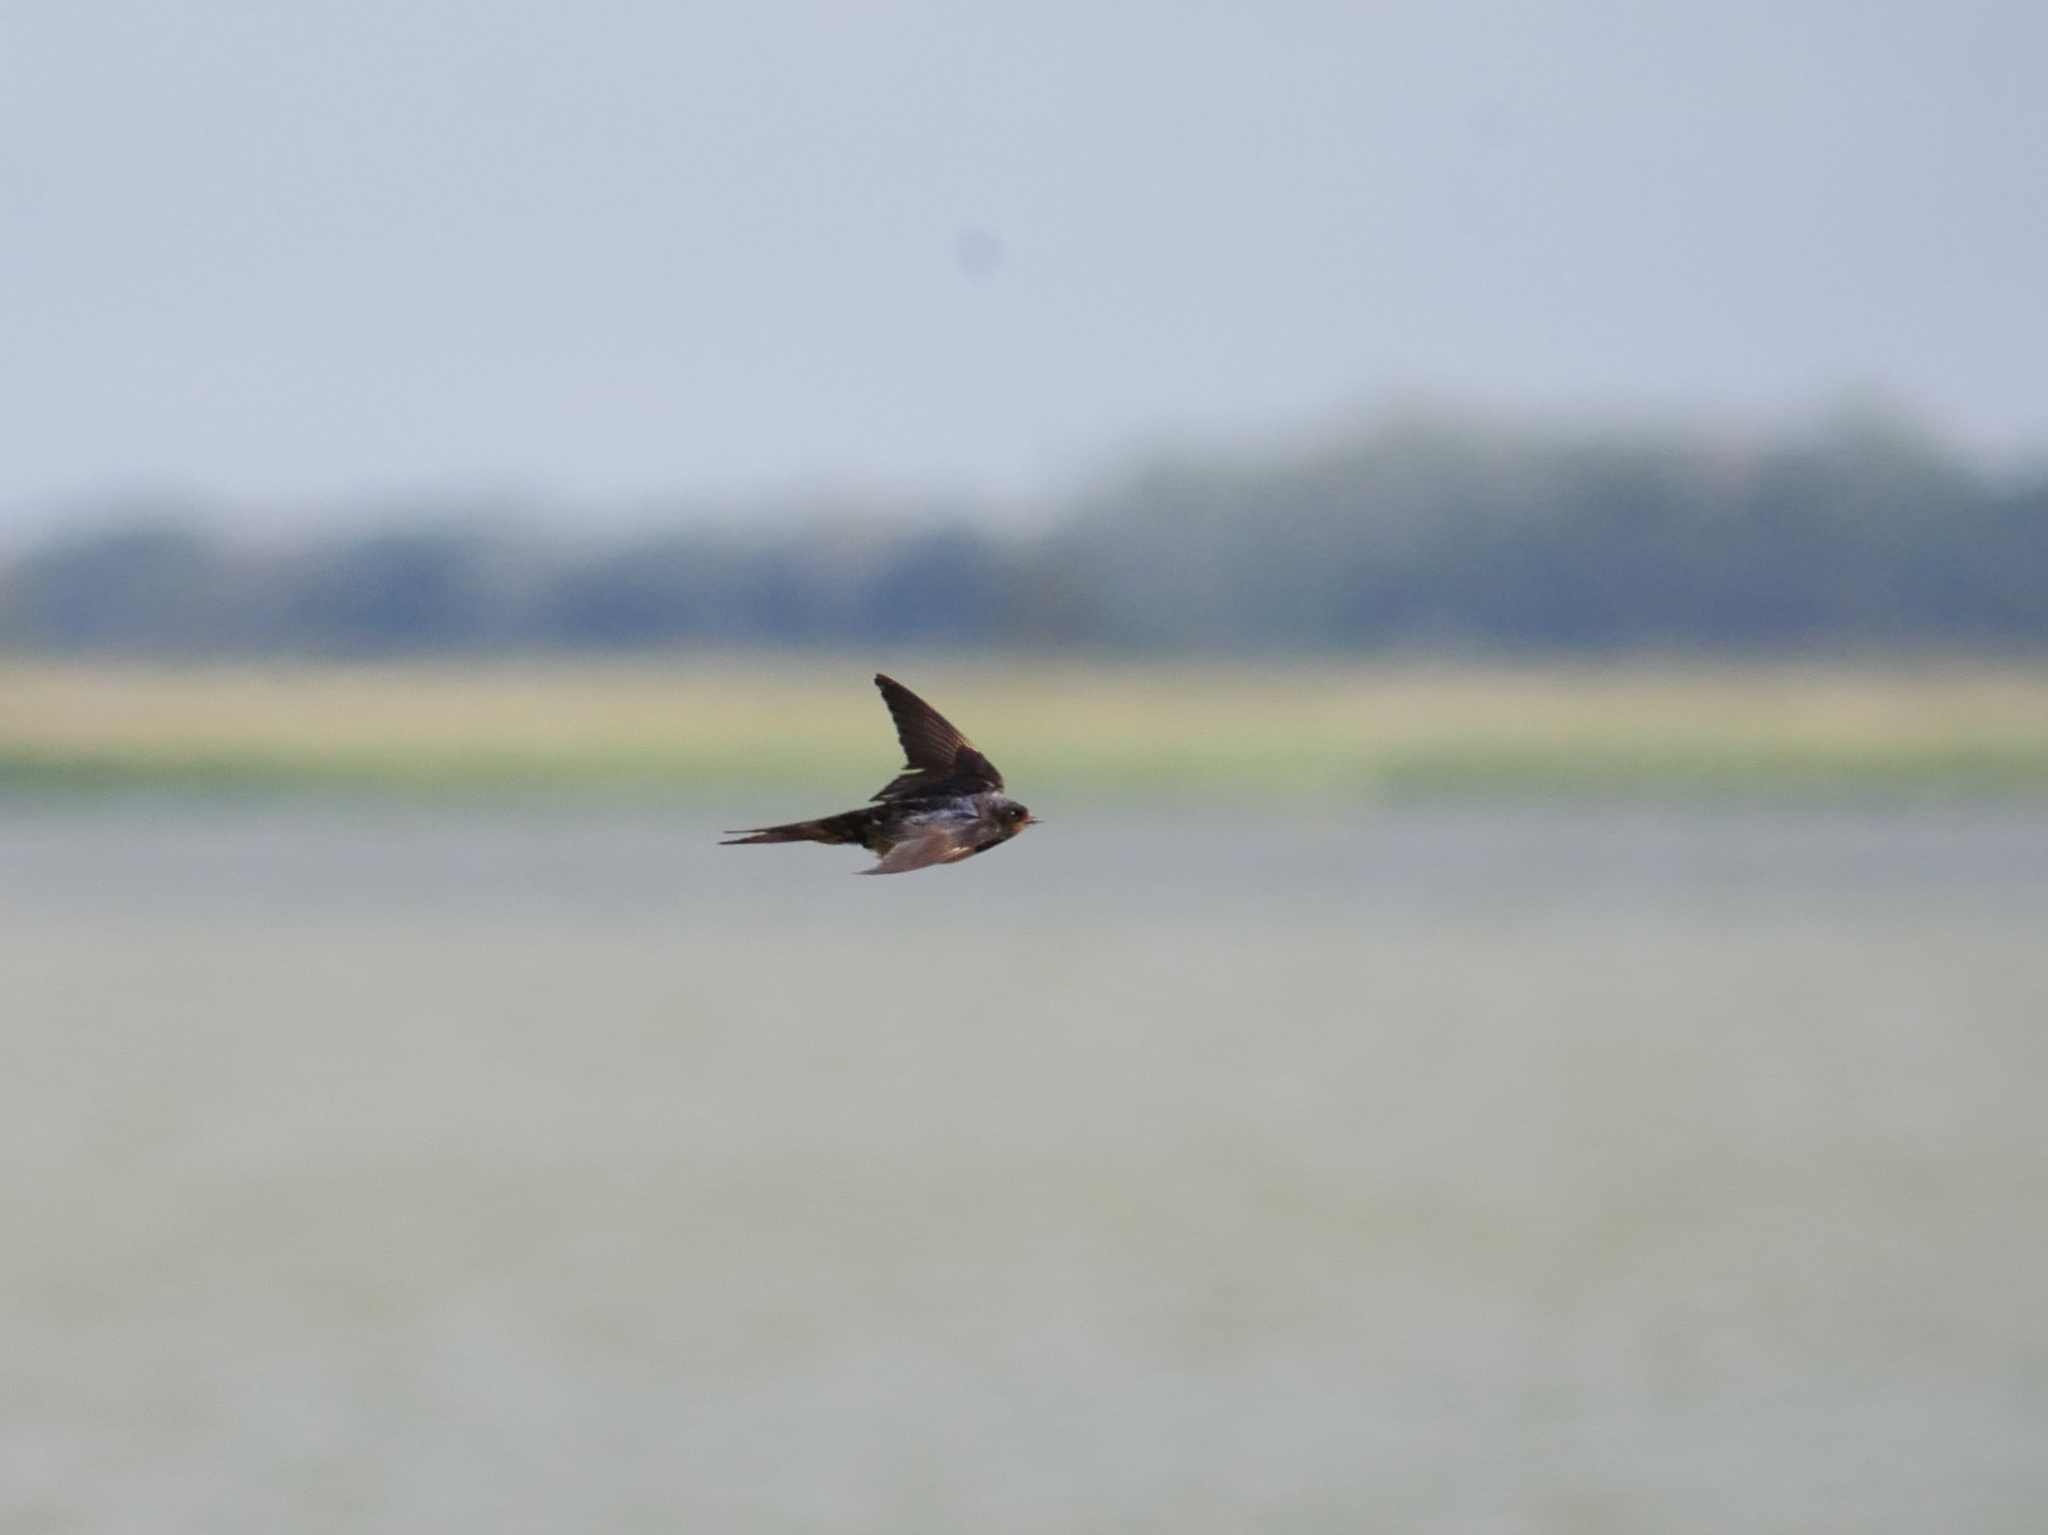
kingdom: Animalia
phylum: Chordata
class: Aves
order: Passeriformes
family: Hirundinidae
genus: Hirundo
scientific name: Hirundo rustica
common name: Barn swallow
